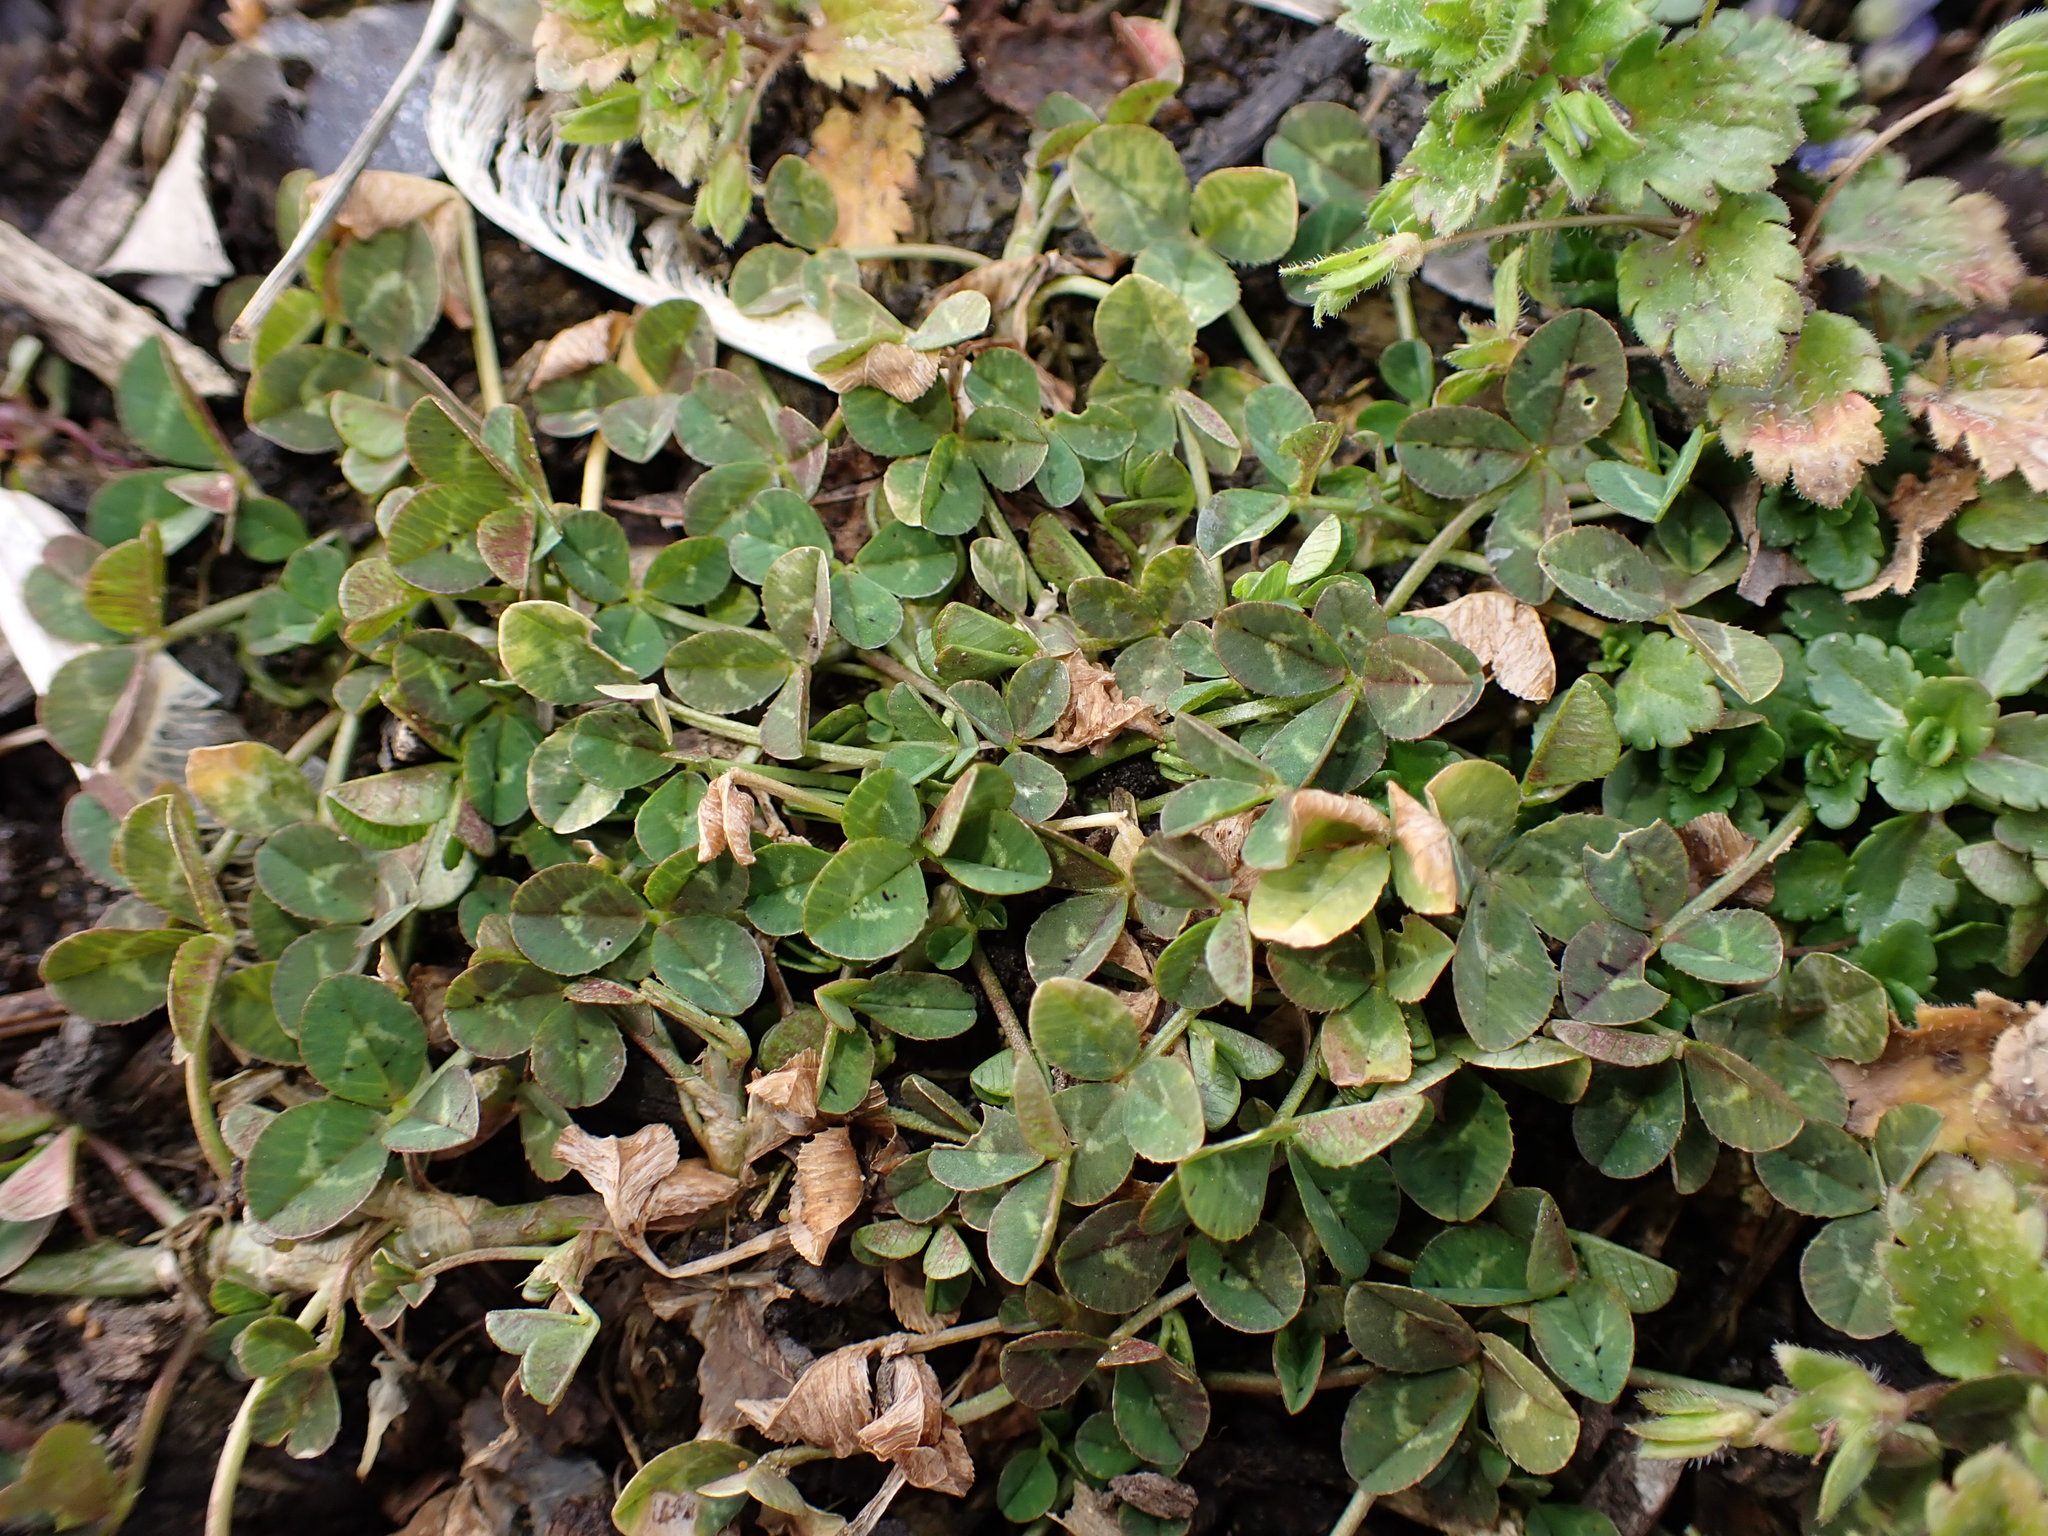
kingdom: Plantae
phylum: Tracheophyta
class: Magnoliopsida
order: Fabales
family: Fabaceae
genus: Trifolium
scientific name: Trifolium repens
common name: White clover
